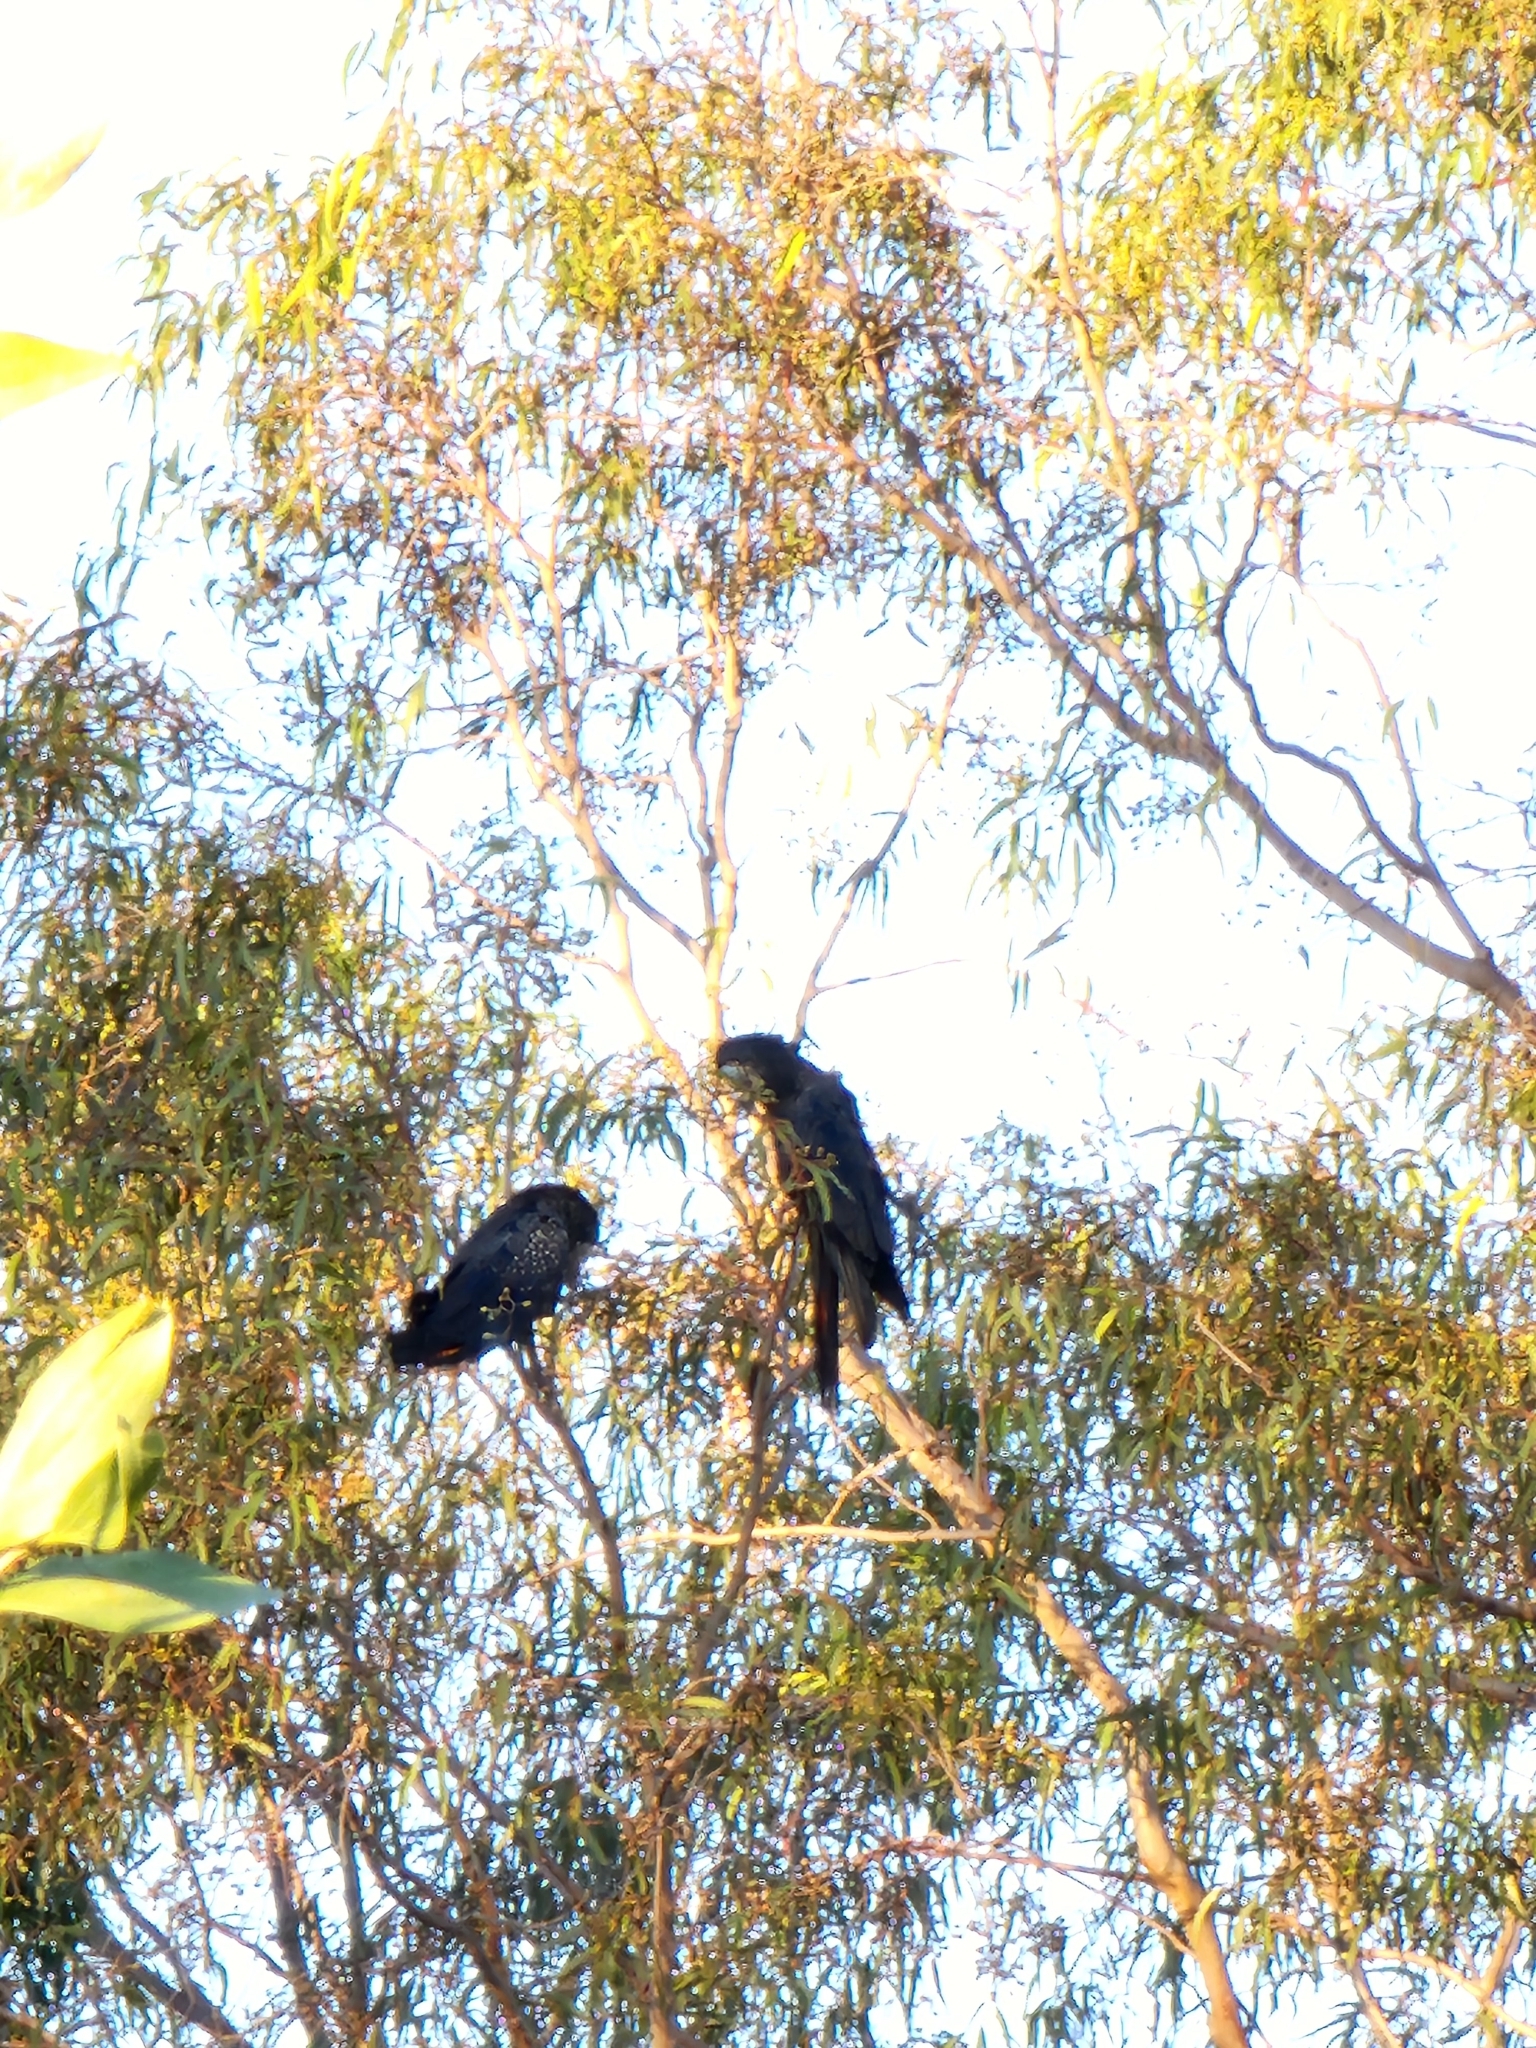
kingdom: Animalia
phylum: Chordata
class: Aves
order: Psittaciformes
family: Psittacidae
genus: Calyptorhynchus
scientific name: Calyptorhynchus banksii
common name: Red-tailed black cockatoo
